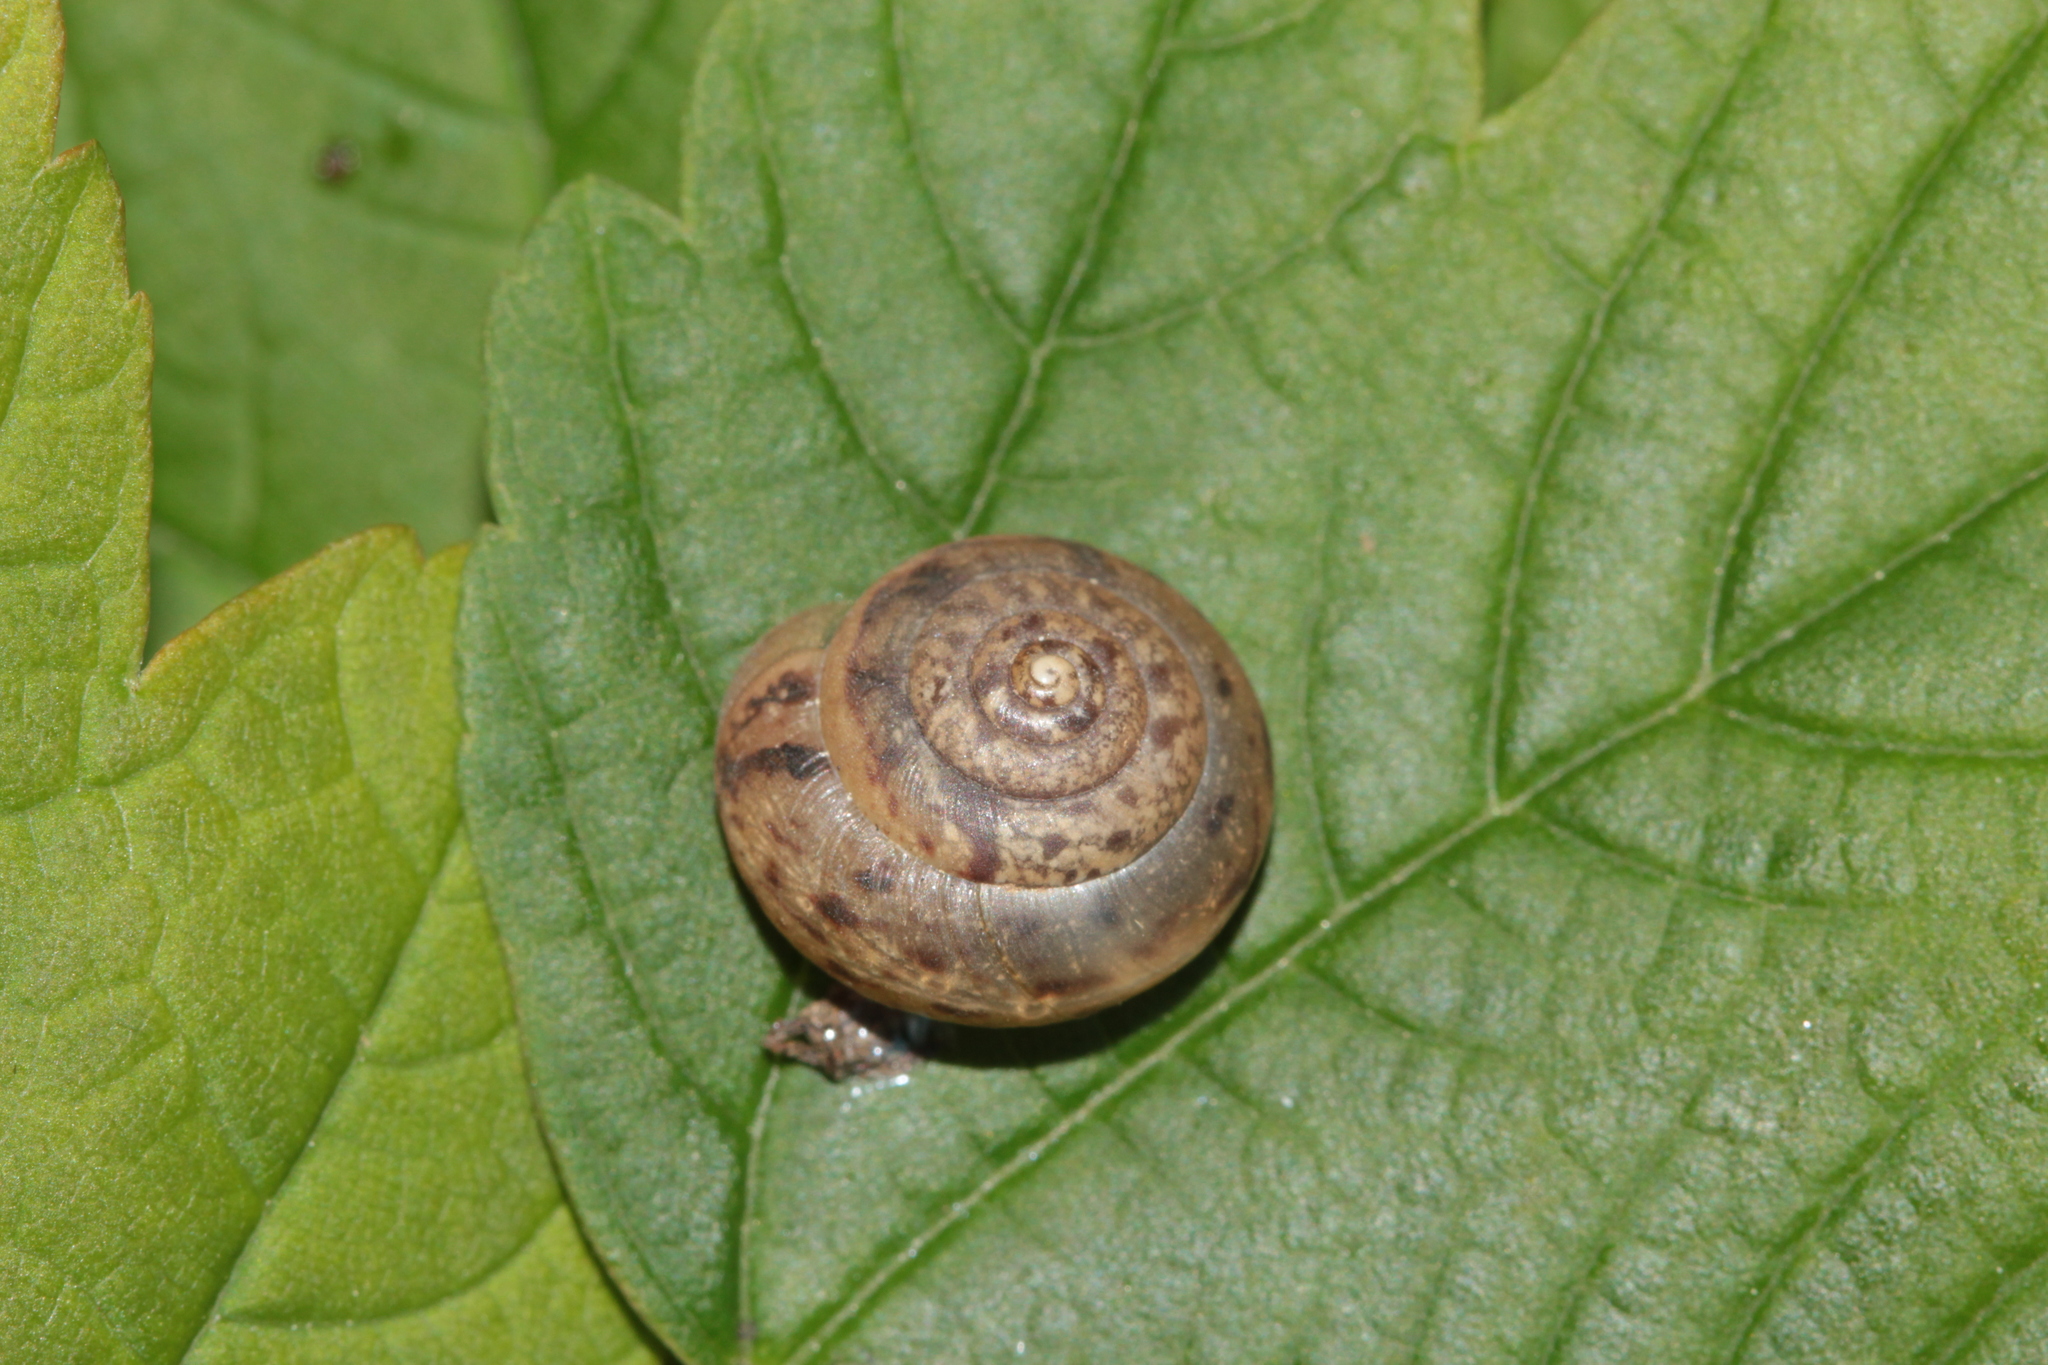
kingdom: Animalia
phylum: Mollusca
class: Gastropoda
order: Stylommatophora
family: Hygromiidae
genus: Monachoides
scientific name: Monachoides incarnatus
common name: Incarnate snail
